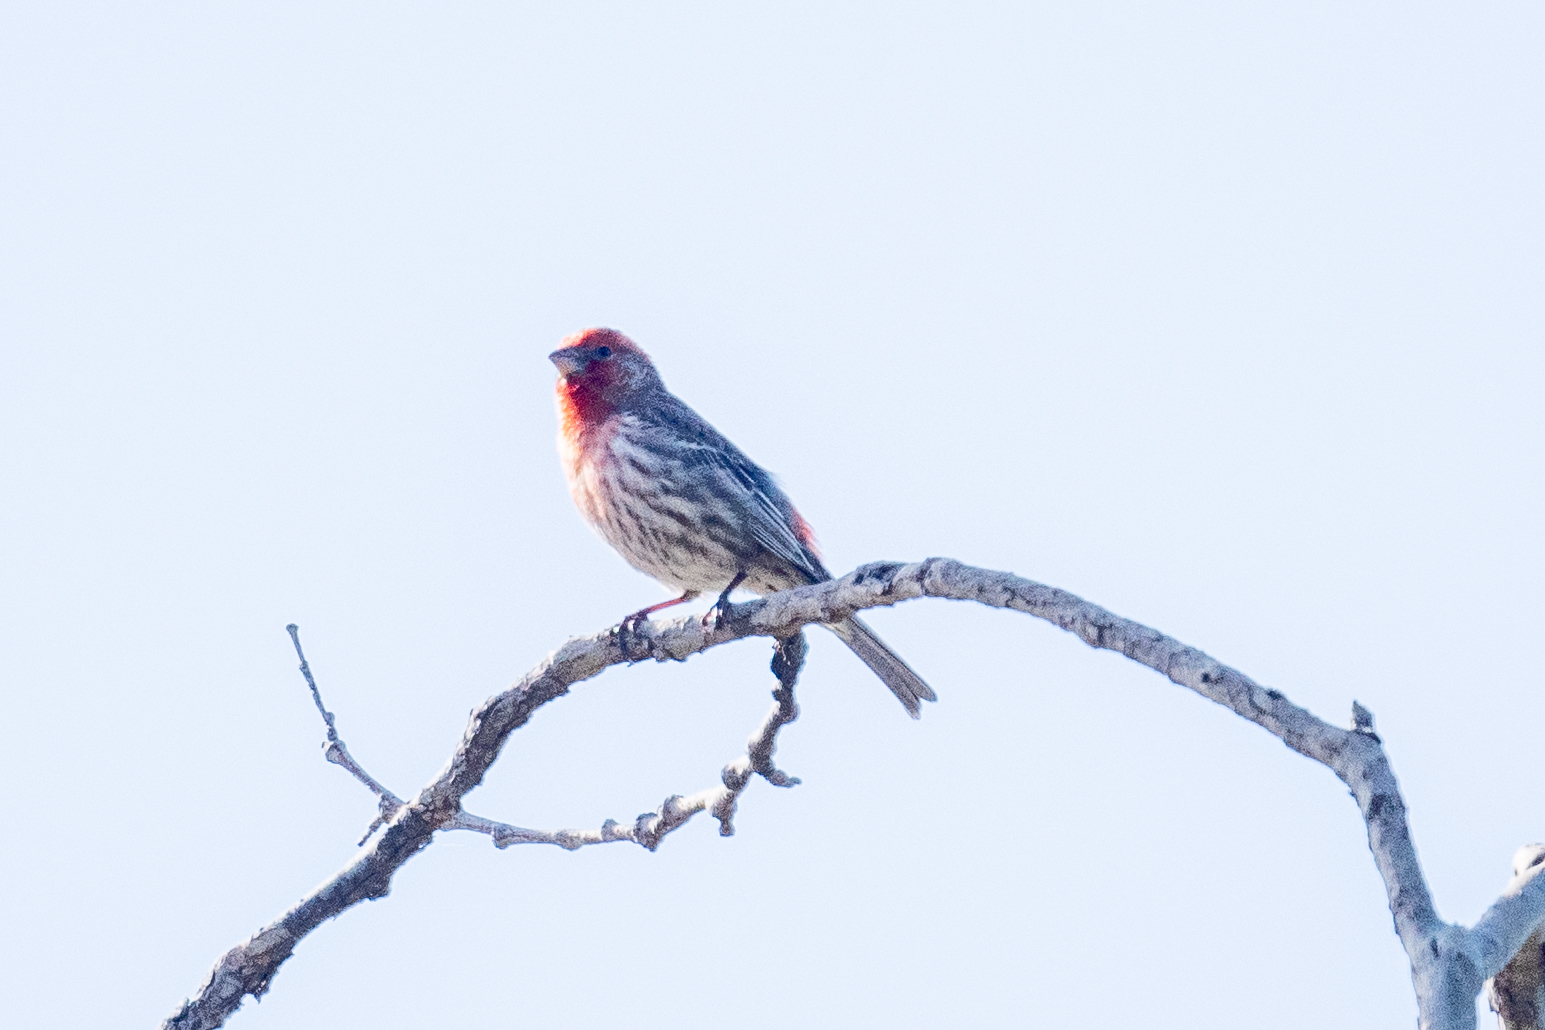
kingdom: Animalia
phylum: Chordata
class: Aves
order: Passeriformes
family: Fringillidae
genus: Haemorhous
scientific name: Haemorhous mexicanus
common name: House finch
